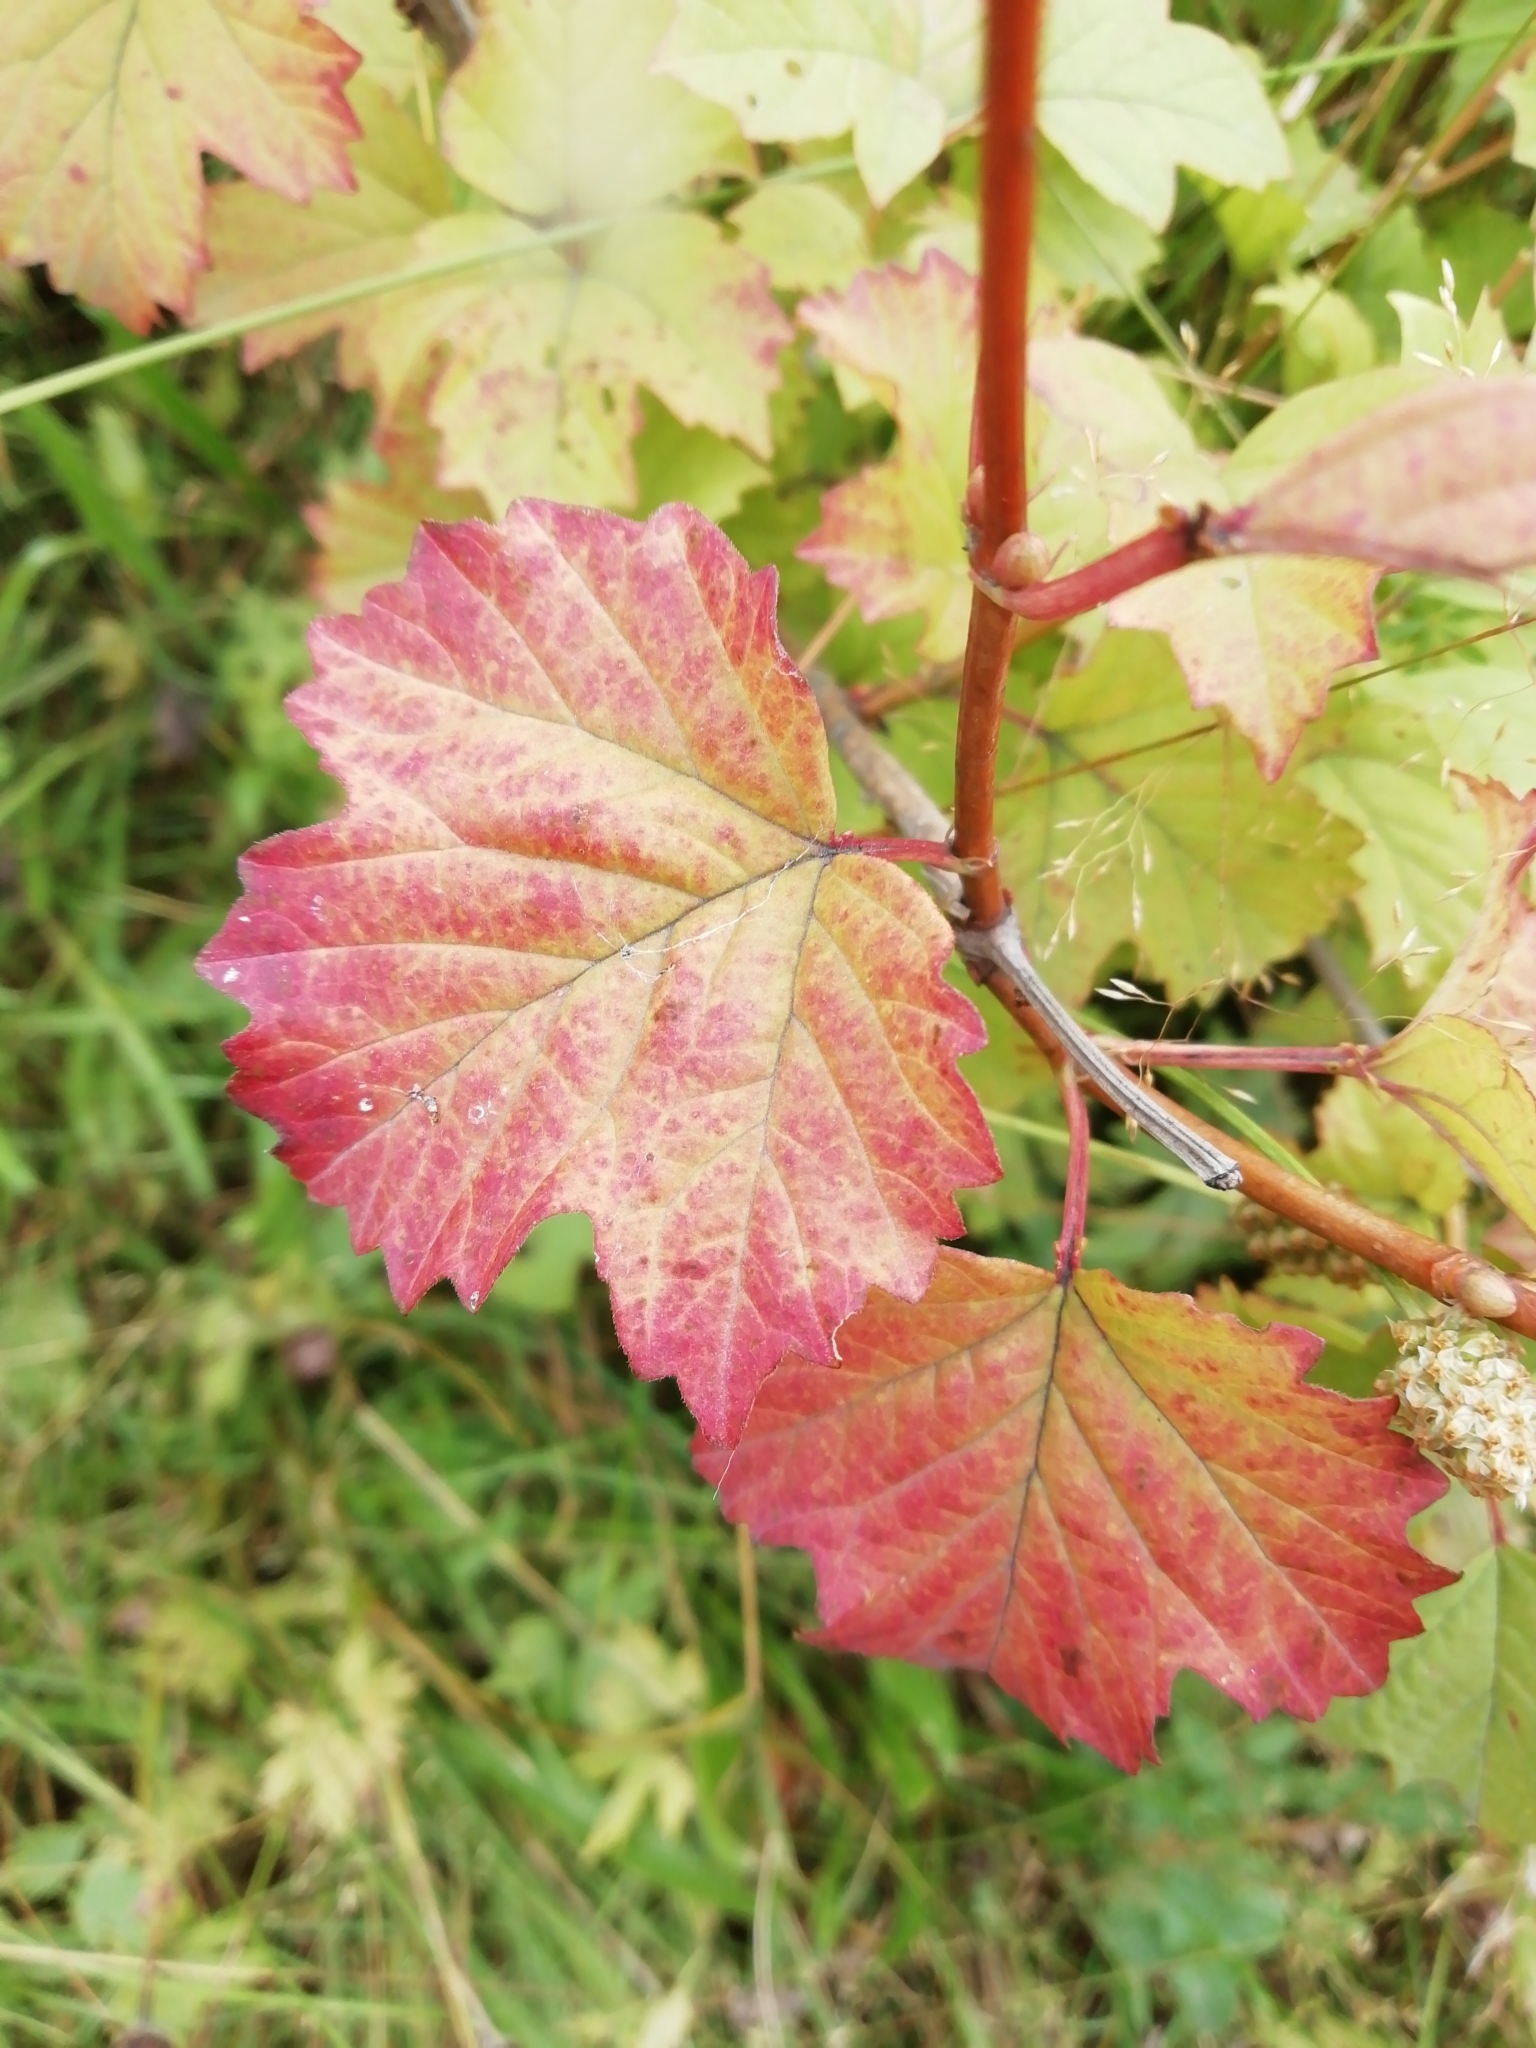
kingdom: Plantae
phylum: Tracheophyta
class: Magnoliopsida
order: Dipsacales
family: Viburnaceae
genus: Viburnum
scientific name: Viburnum opulus
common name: Guelder-rose
